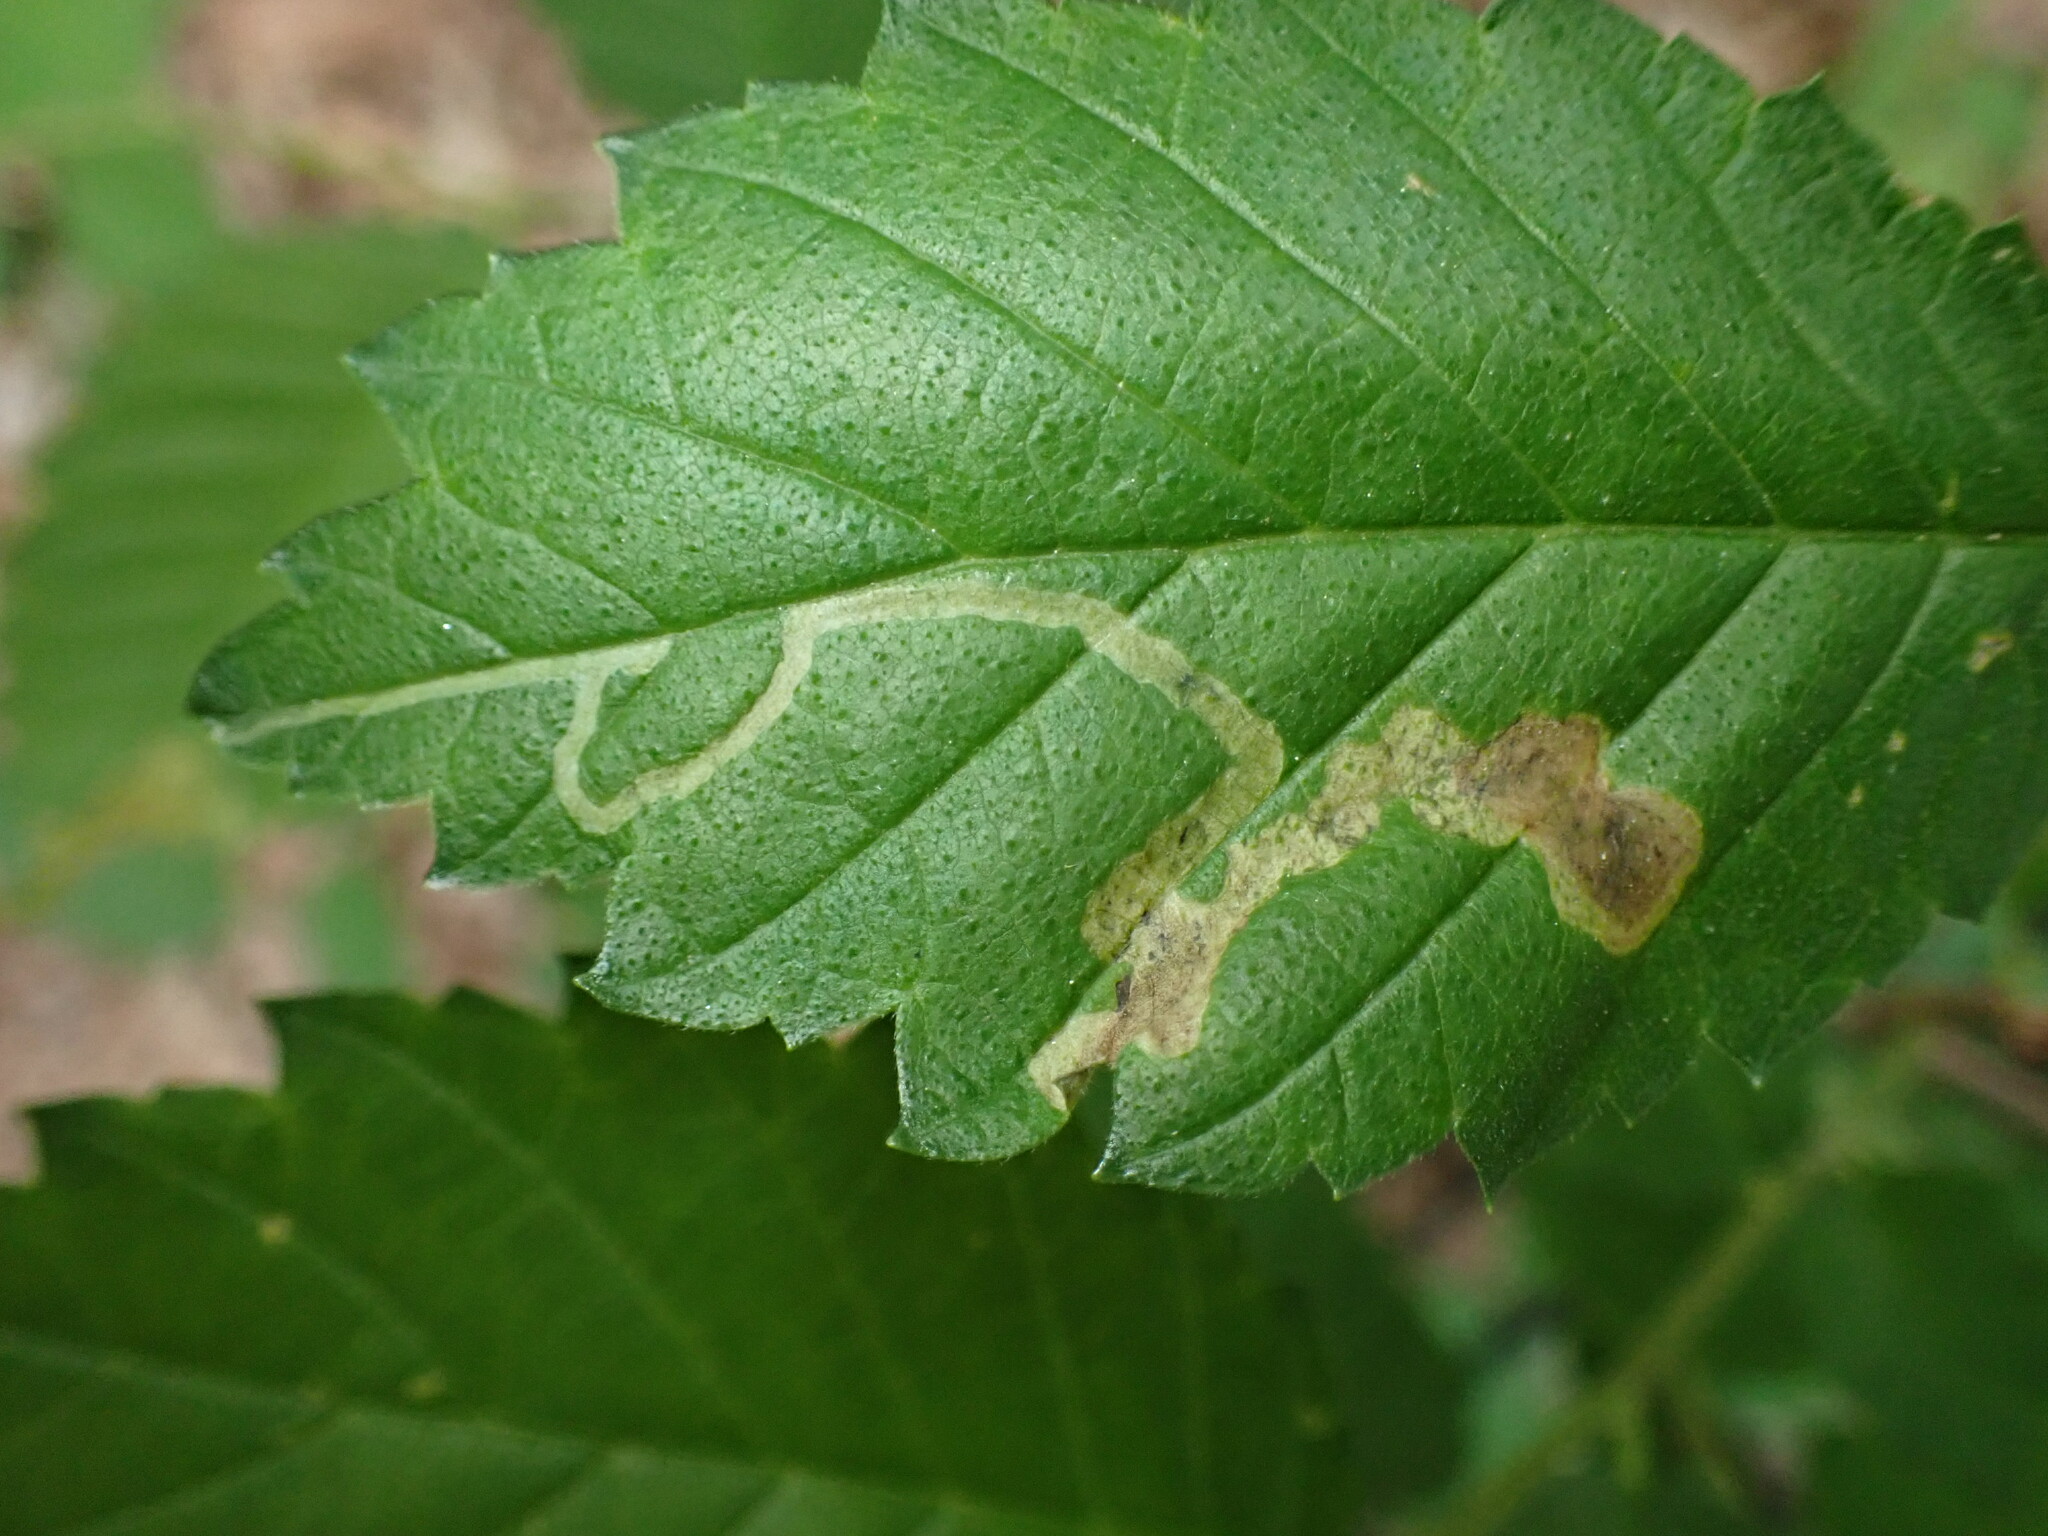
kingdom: Animalia
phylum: Arthropoda
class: Insecta
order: Diptera
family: Agromyzidae
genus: Agromyza
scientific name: Agromyza aristata
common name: Elm agromyzid leafminer
